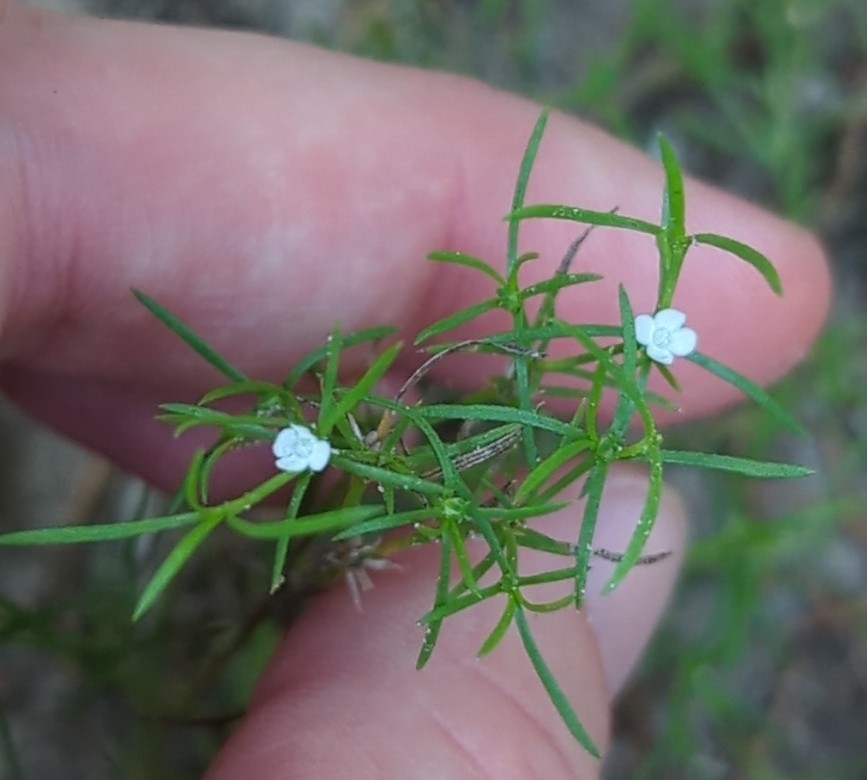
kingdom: Plantae
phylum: Tracheophyta
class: Magnoliopsida
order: Lamiales
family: Tetrachondraceae
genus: Polypremum
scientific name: Polypremum procumbens
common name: Juniper-leaf
